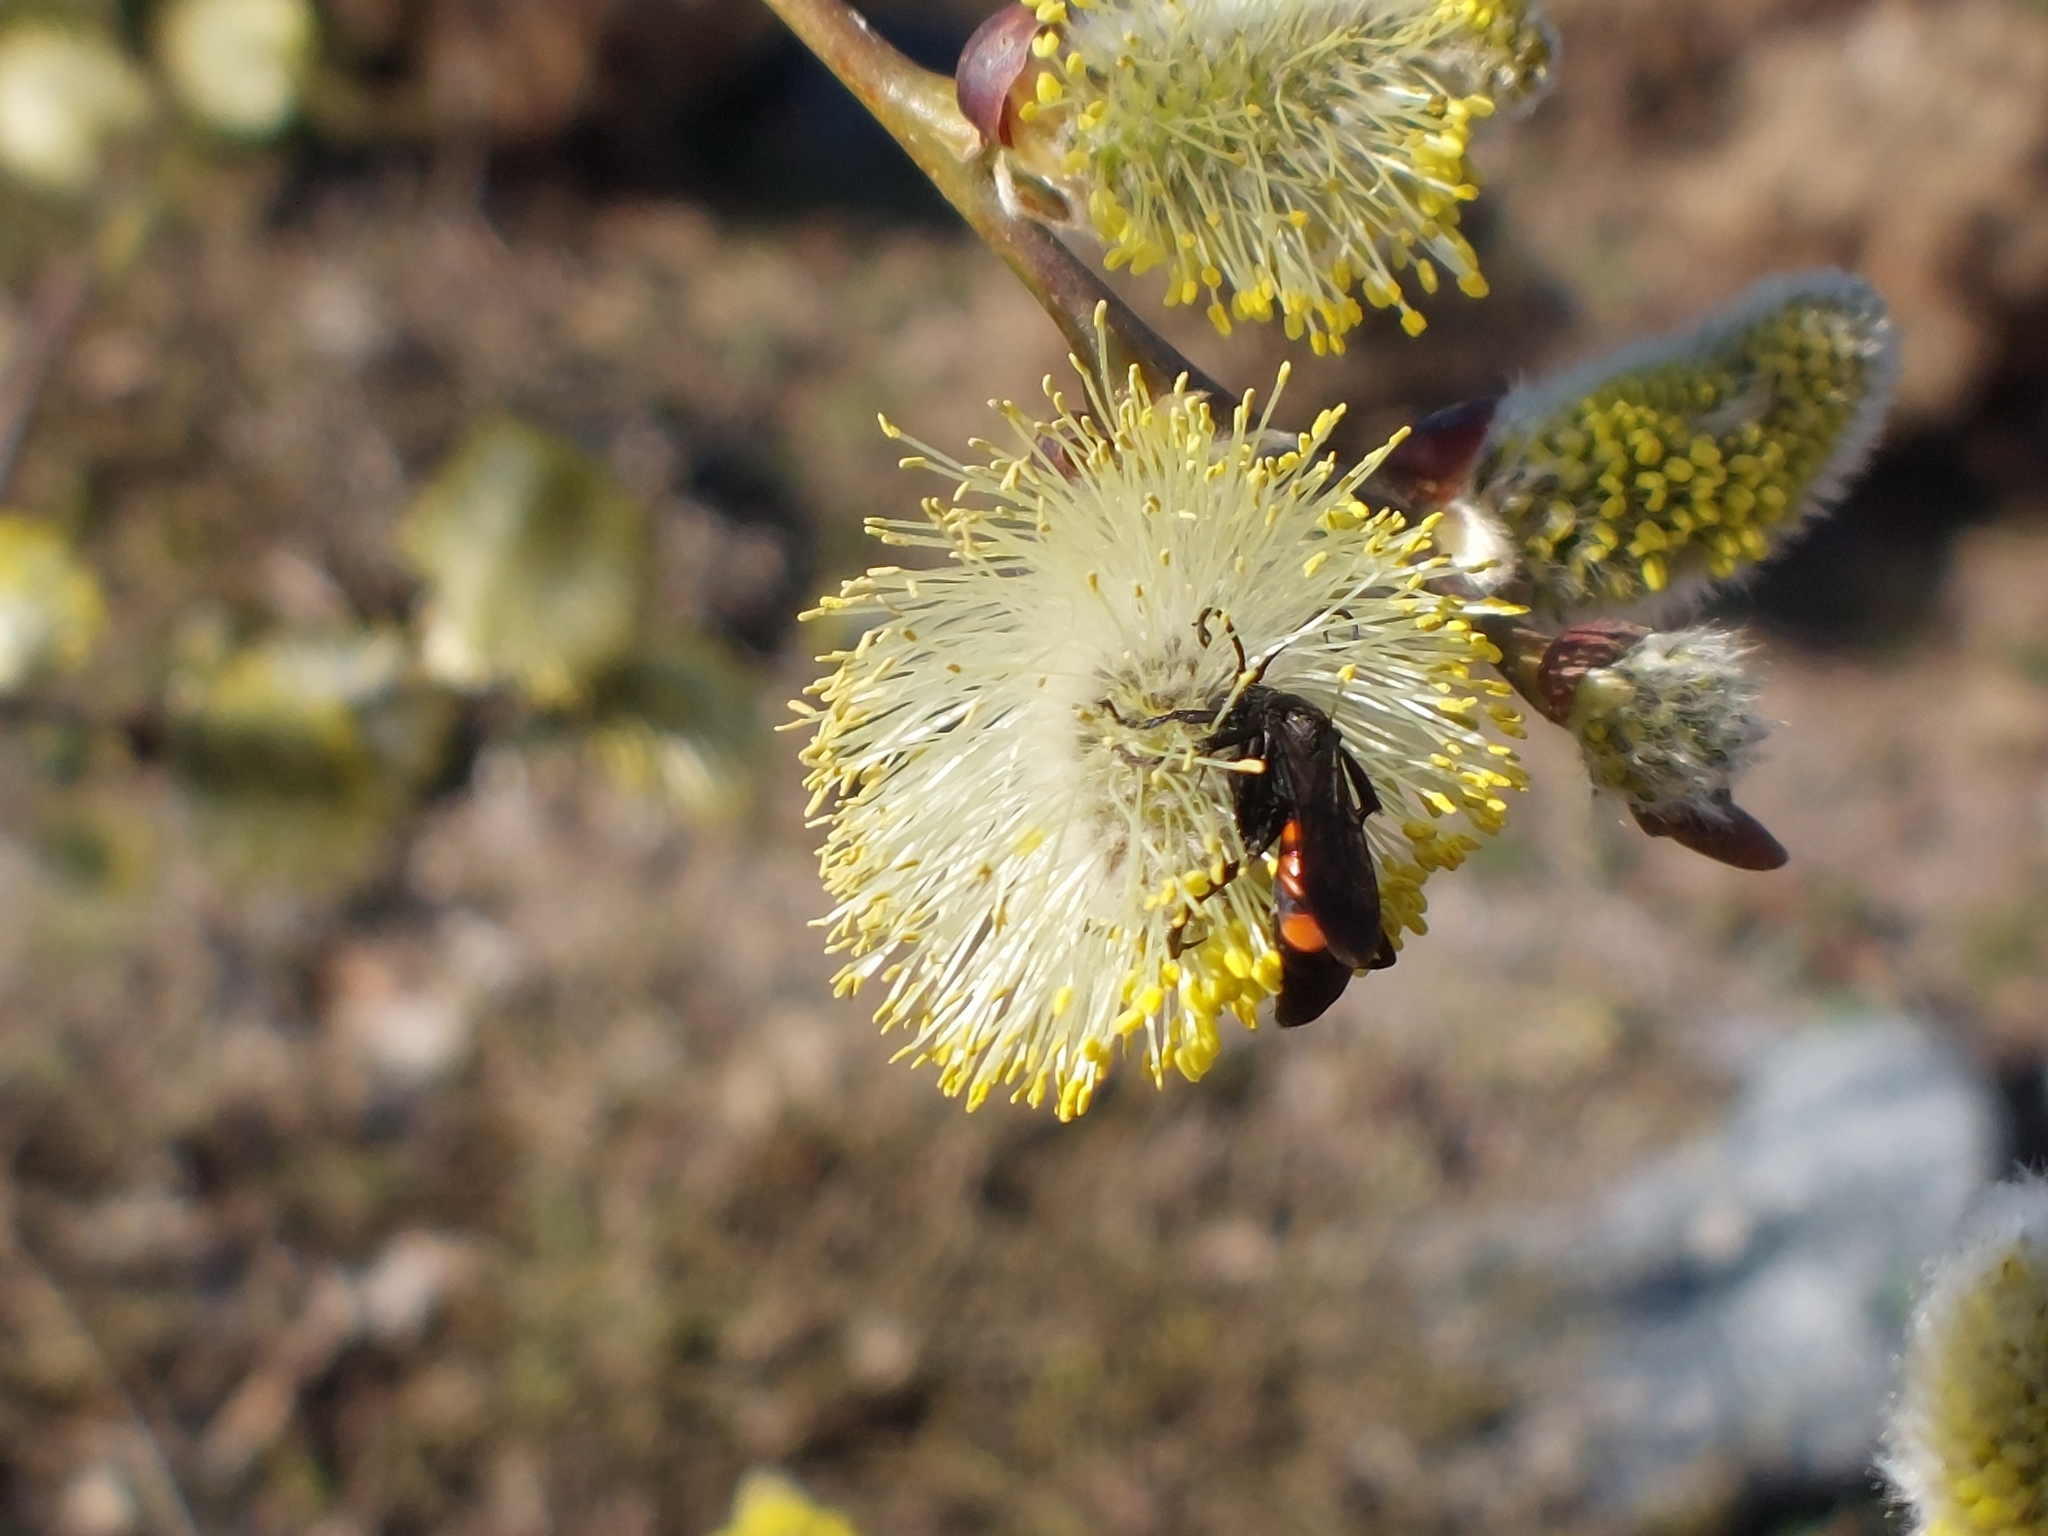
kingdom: Animalia
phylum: Arthropoda
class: Insecta
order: Hymenoptera
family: Pompilidae
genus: Anoplius
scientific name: Anoplius viaticus
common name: Black banded spider wasp
